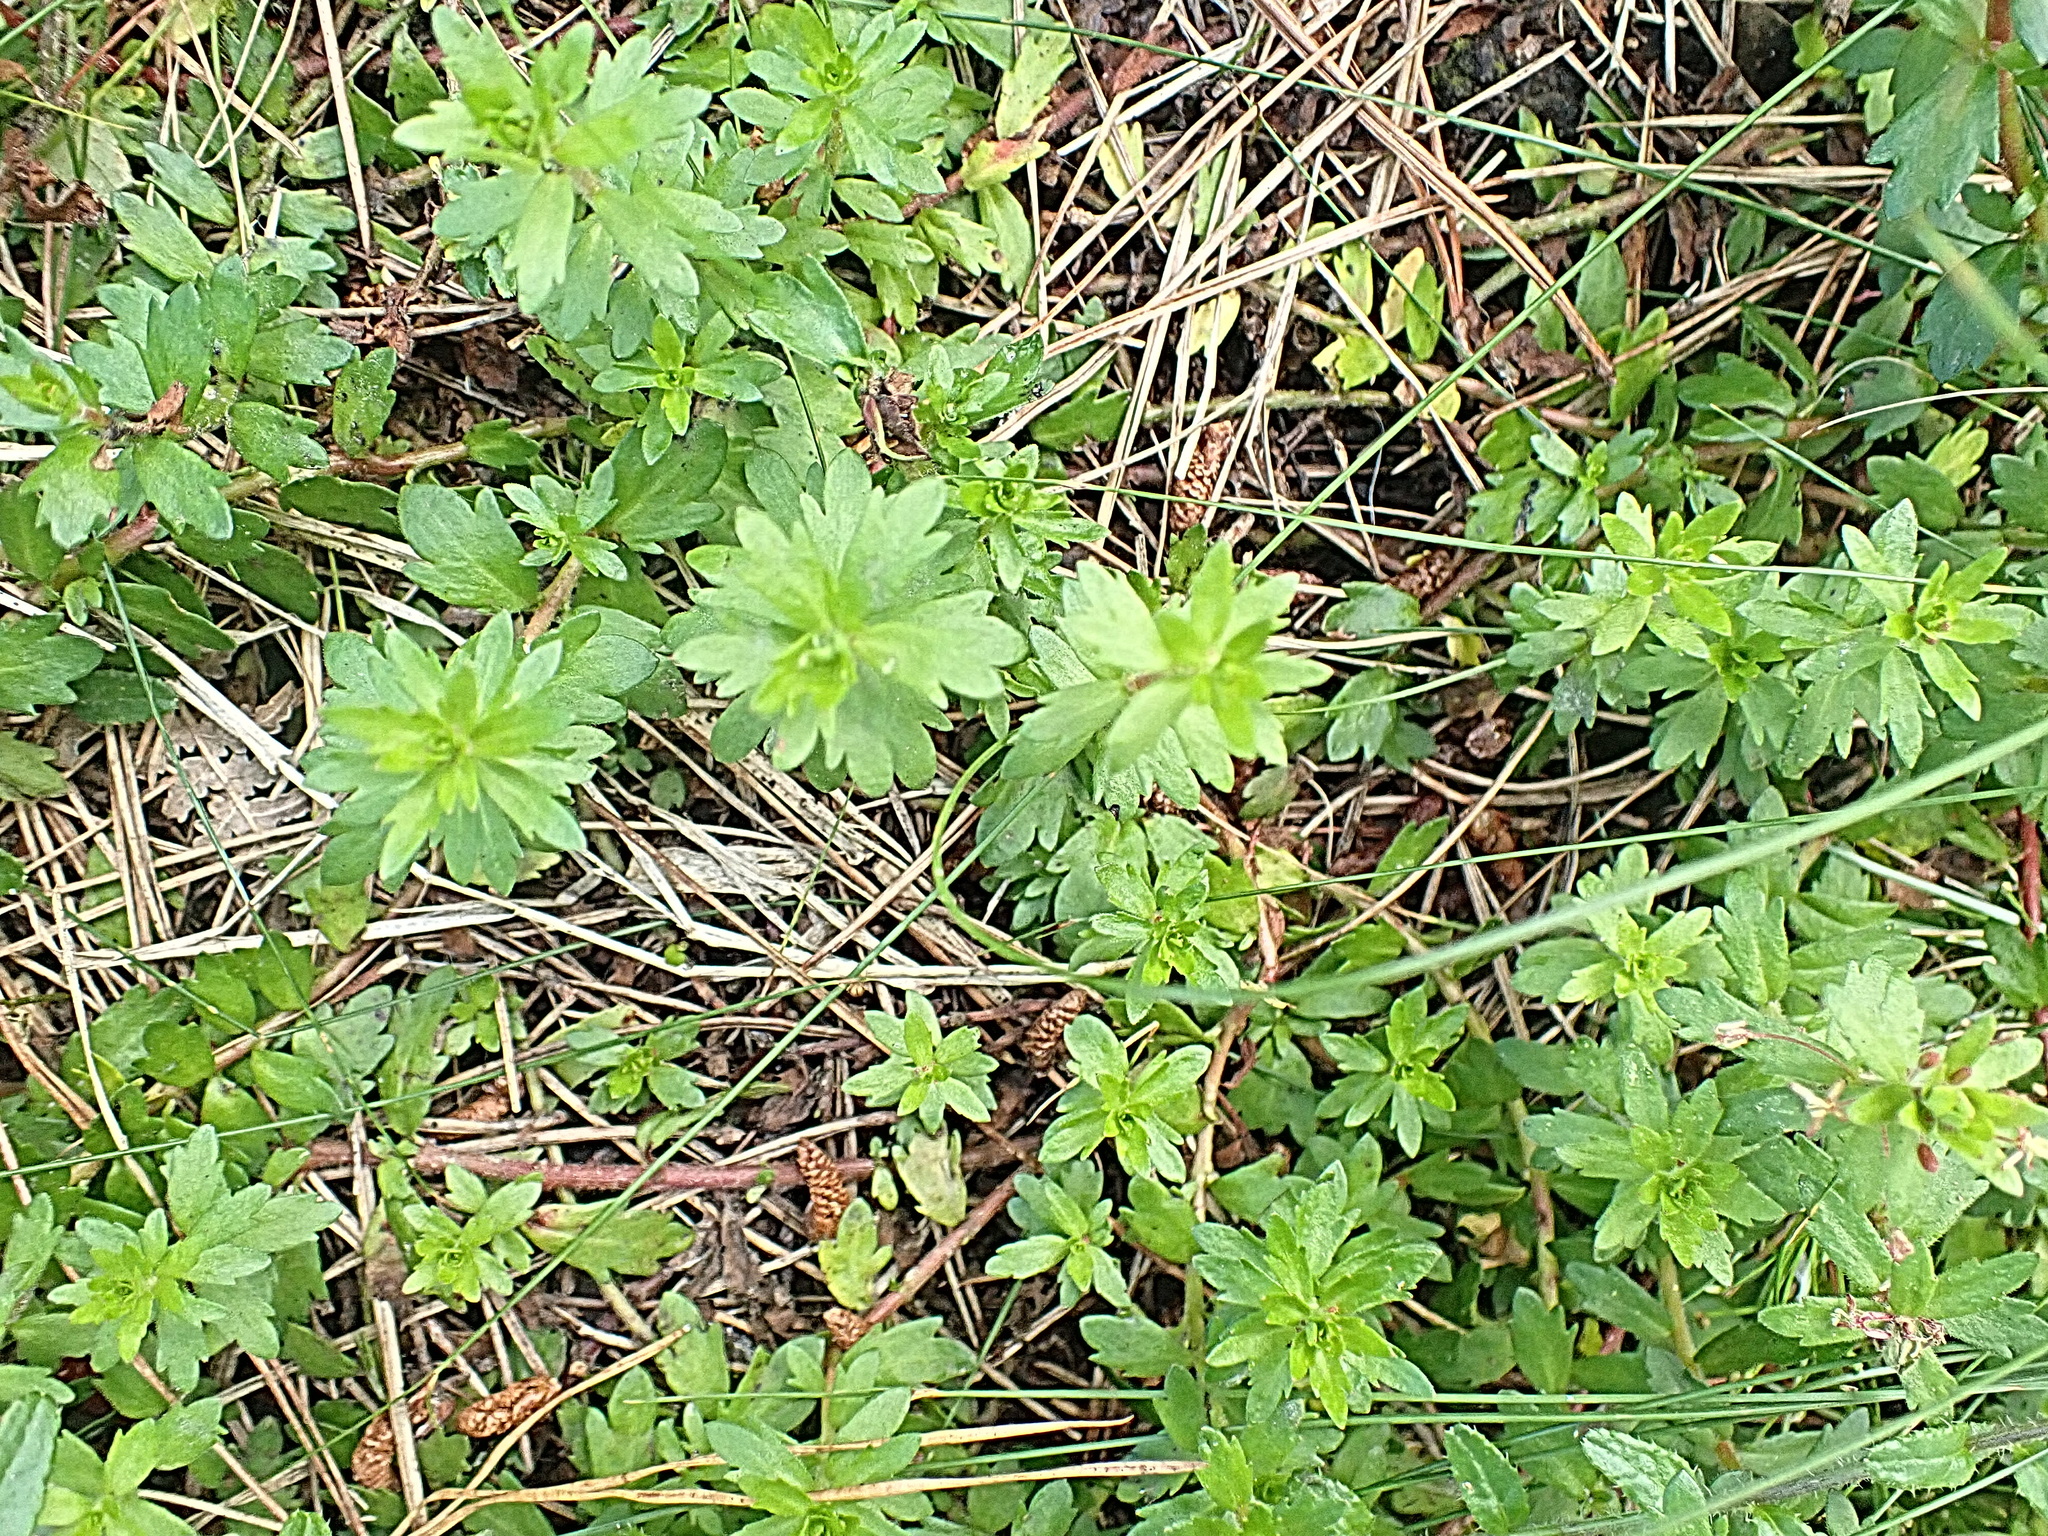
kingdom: Plantae
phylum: Tracheophyta
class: Magnoliopsida
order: Saxifragales
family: Haloragaceae
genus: Laurembergia
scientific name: Laurembergia repens
